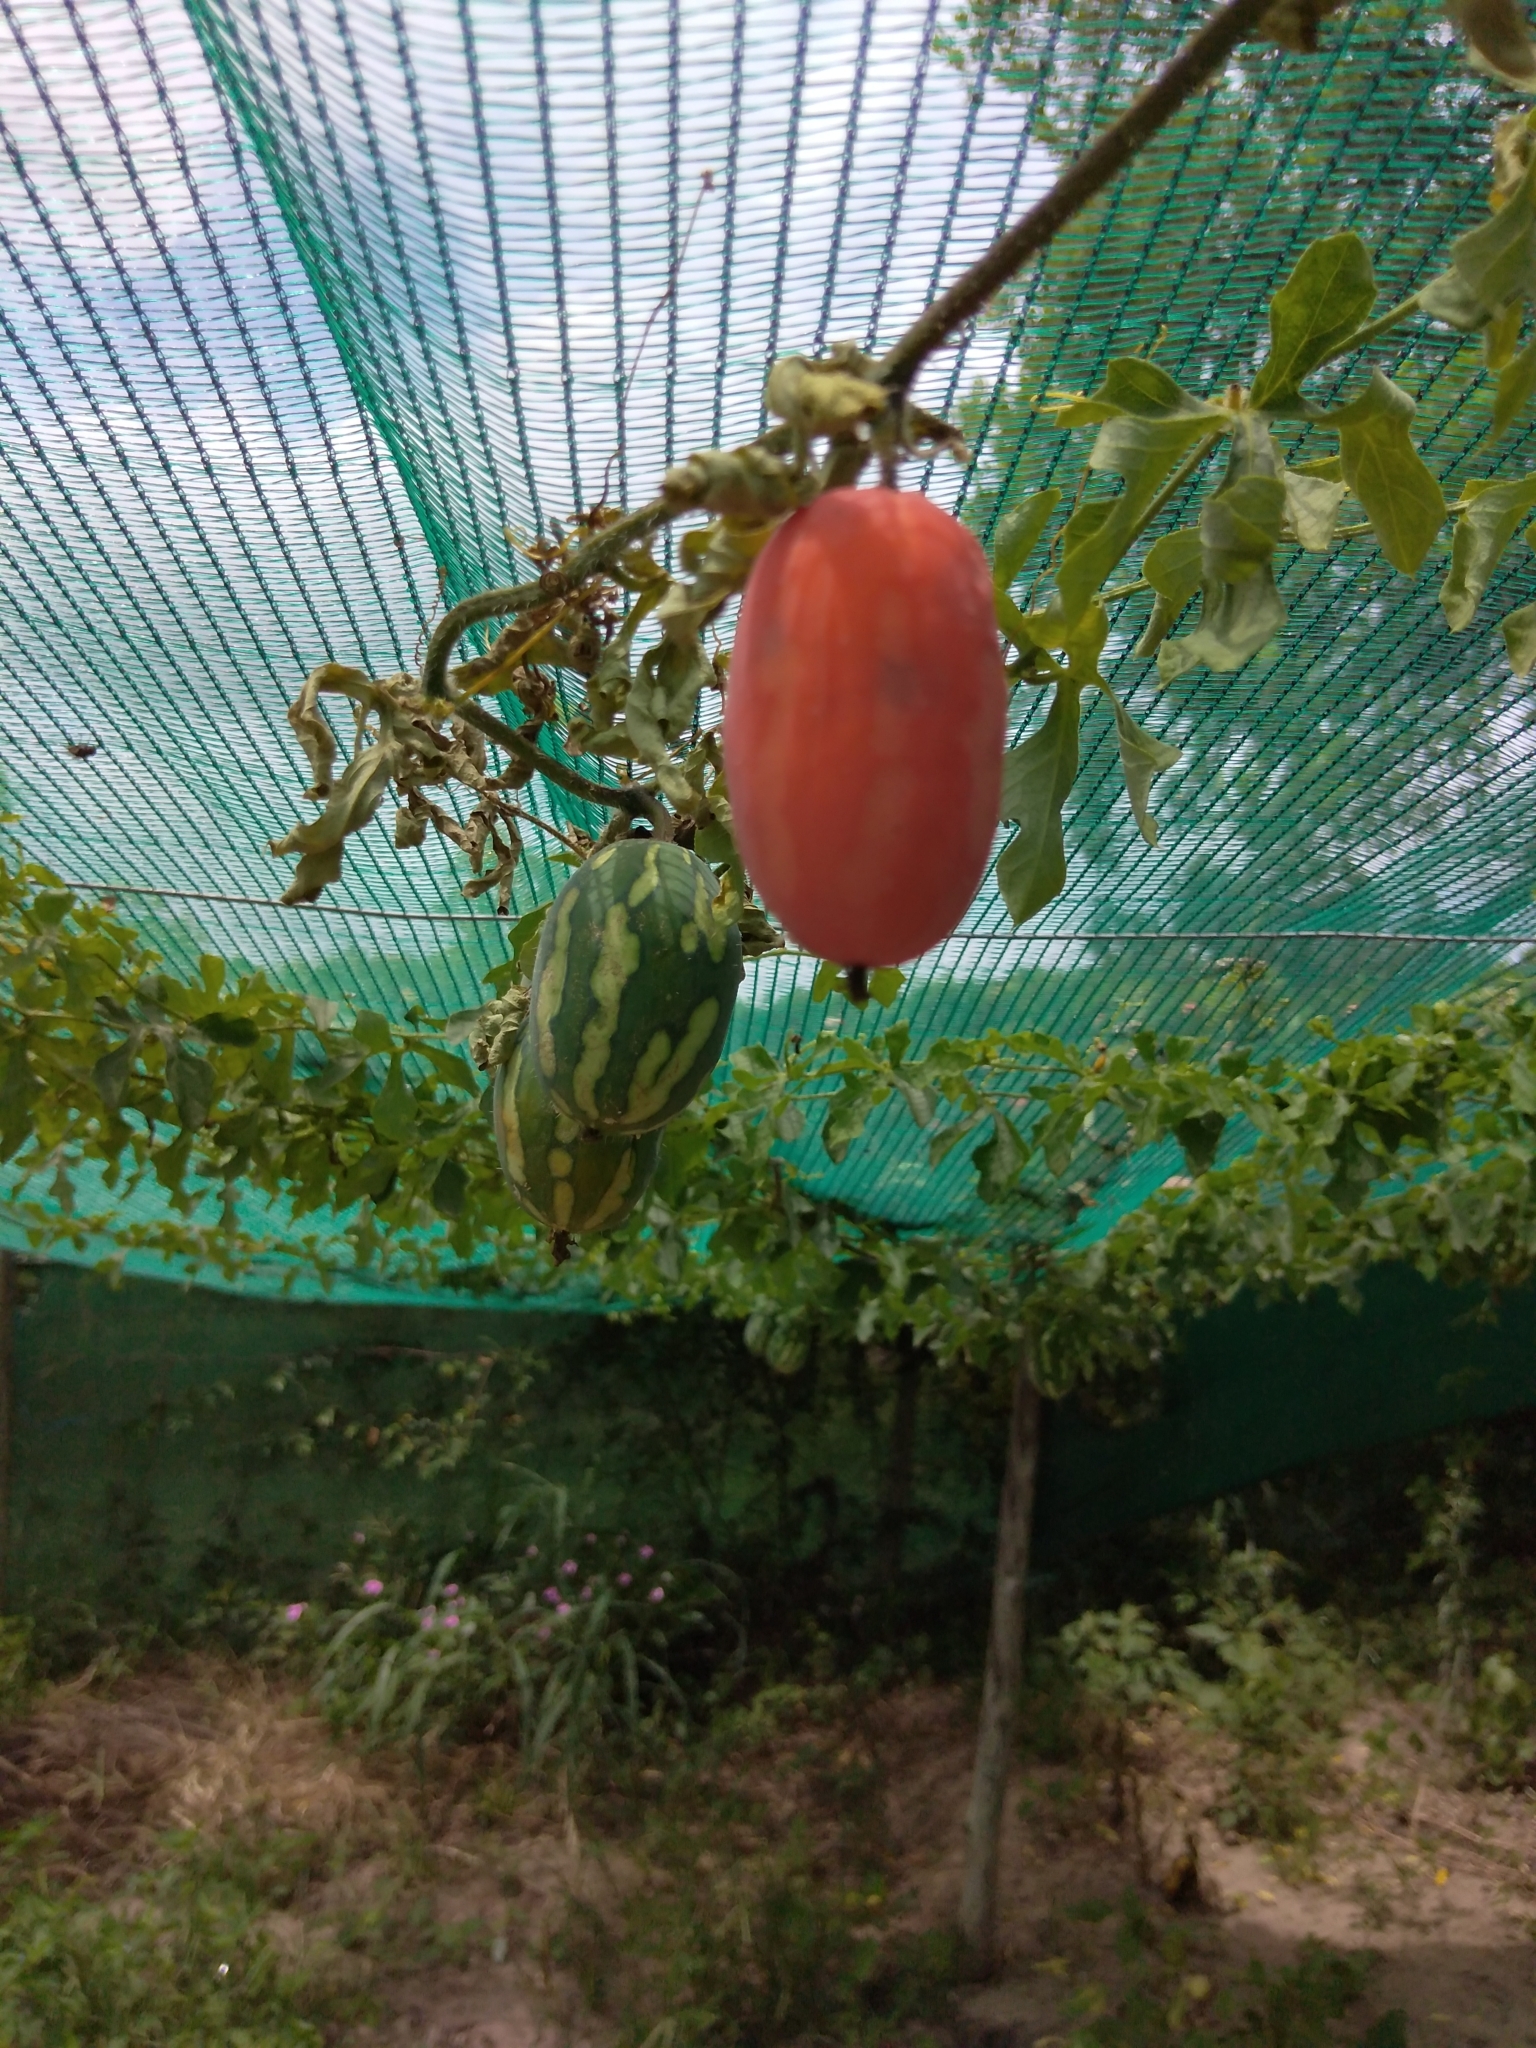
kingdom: Plantae
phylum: Tracheophyta
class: Magnoliopsida
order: Cucurbitales
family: Cucurbitaceae
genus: Coccinia
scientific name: Coccinia rehmannii
